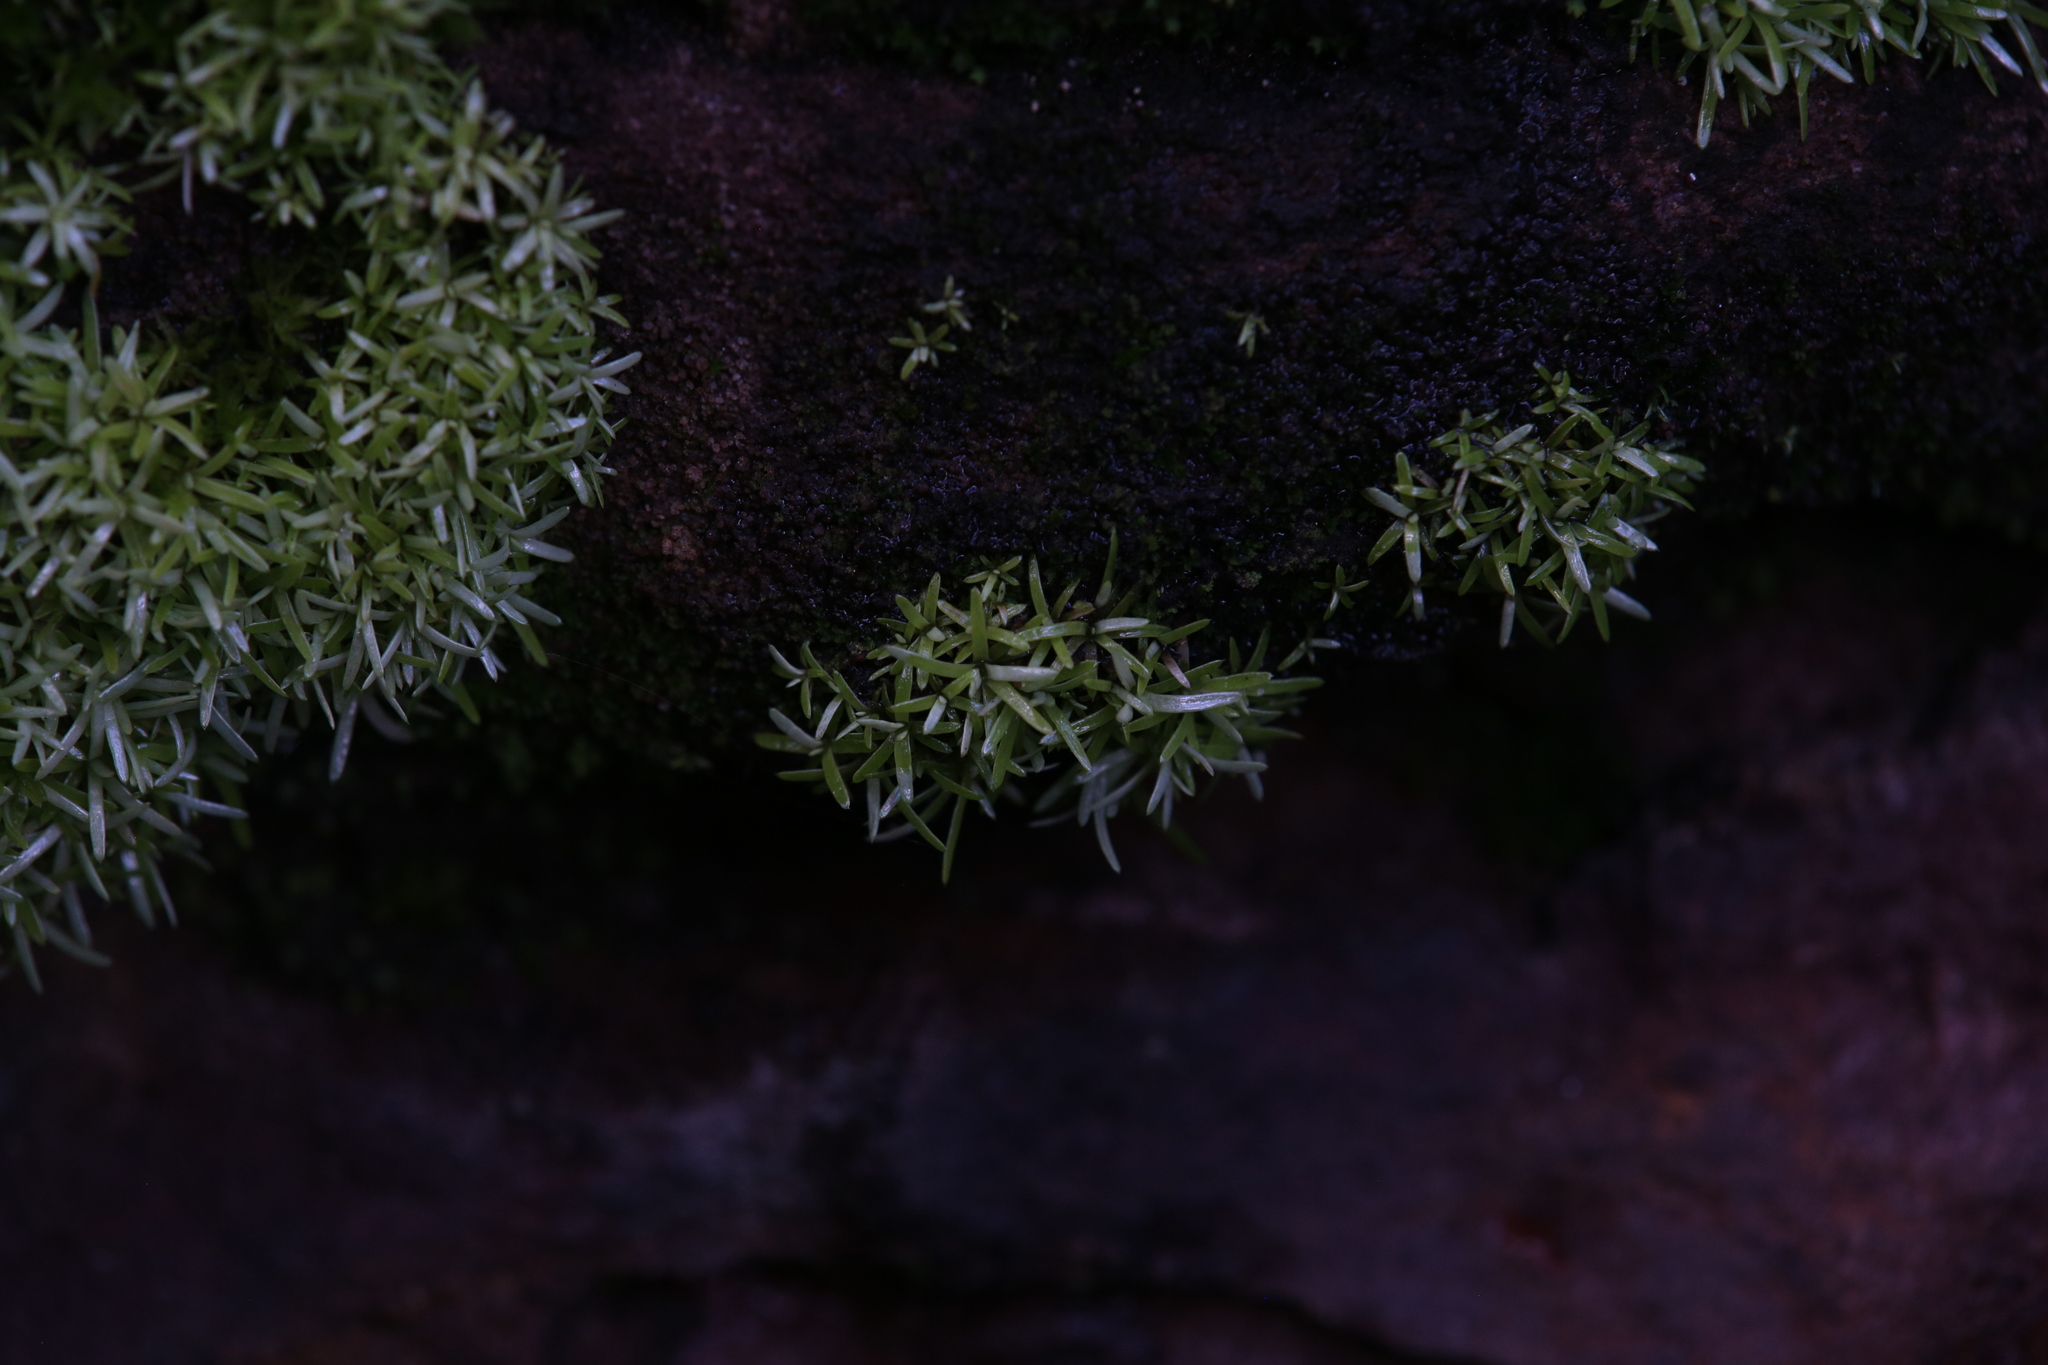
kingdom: Plantae
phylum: Bryophyta
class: Bryopsida
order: Dicranales
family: Octoblepharaceae
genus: Octoblepharum
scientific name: Octoblepharum albidum
